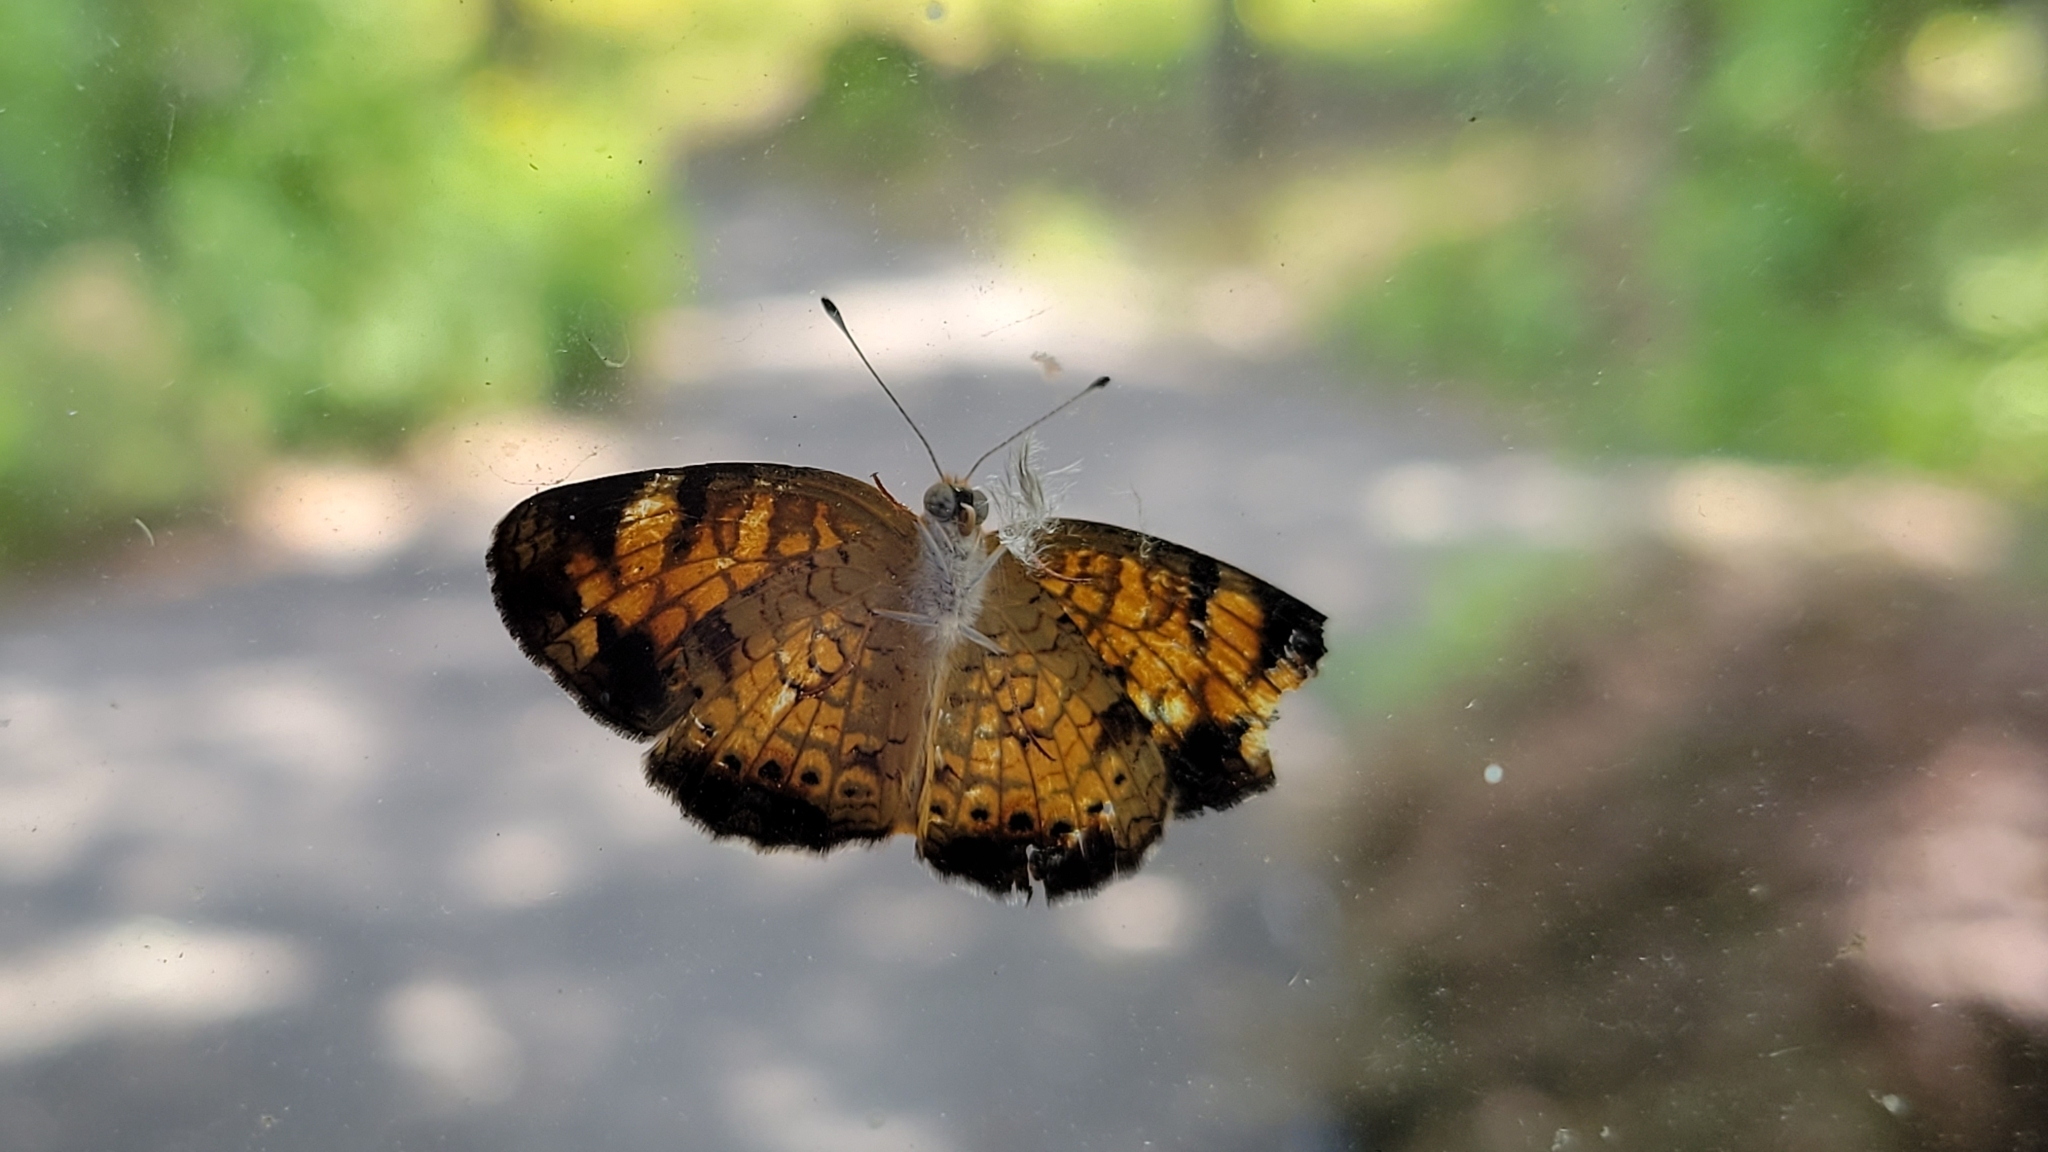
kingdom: Animalia
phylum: Arthropoda
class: Insecta
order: Lepidoptera
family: Nymphalidae
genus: Phyciodes
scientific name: Phyciodes tharos
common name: Pearl crescent
